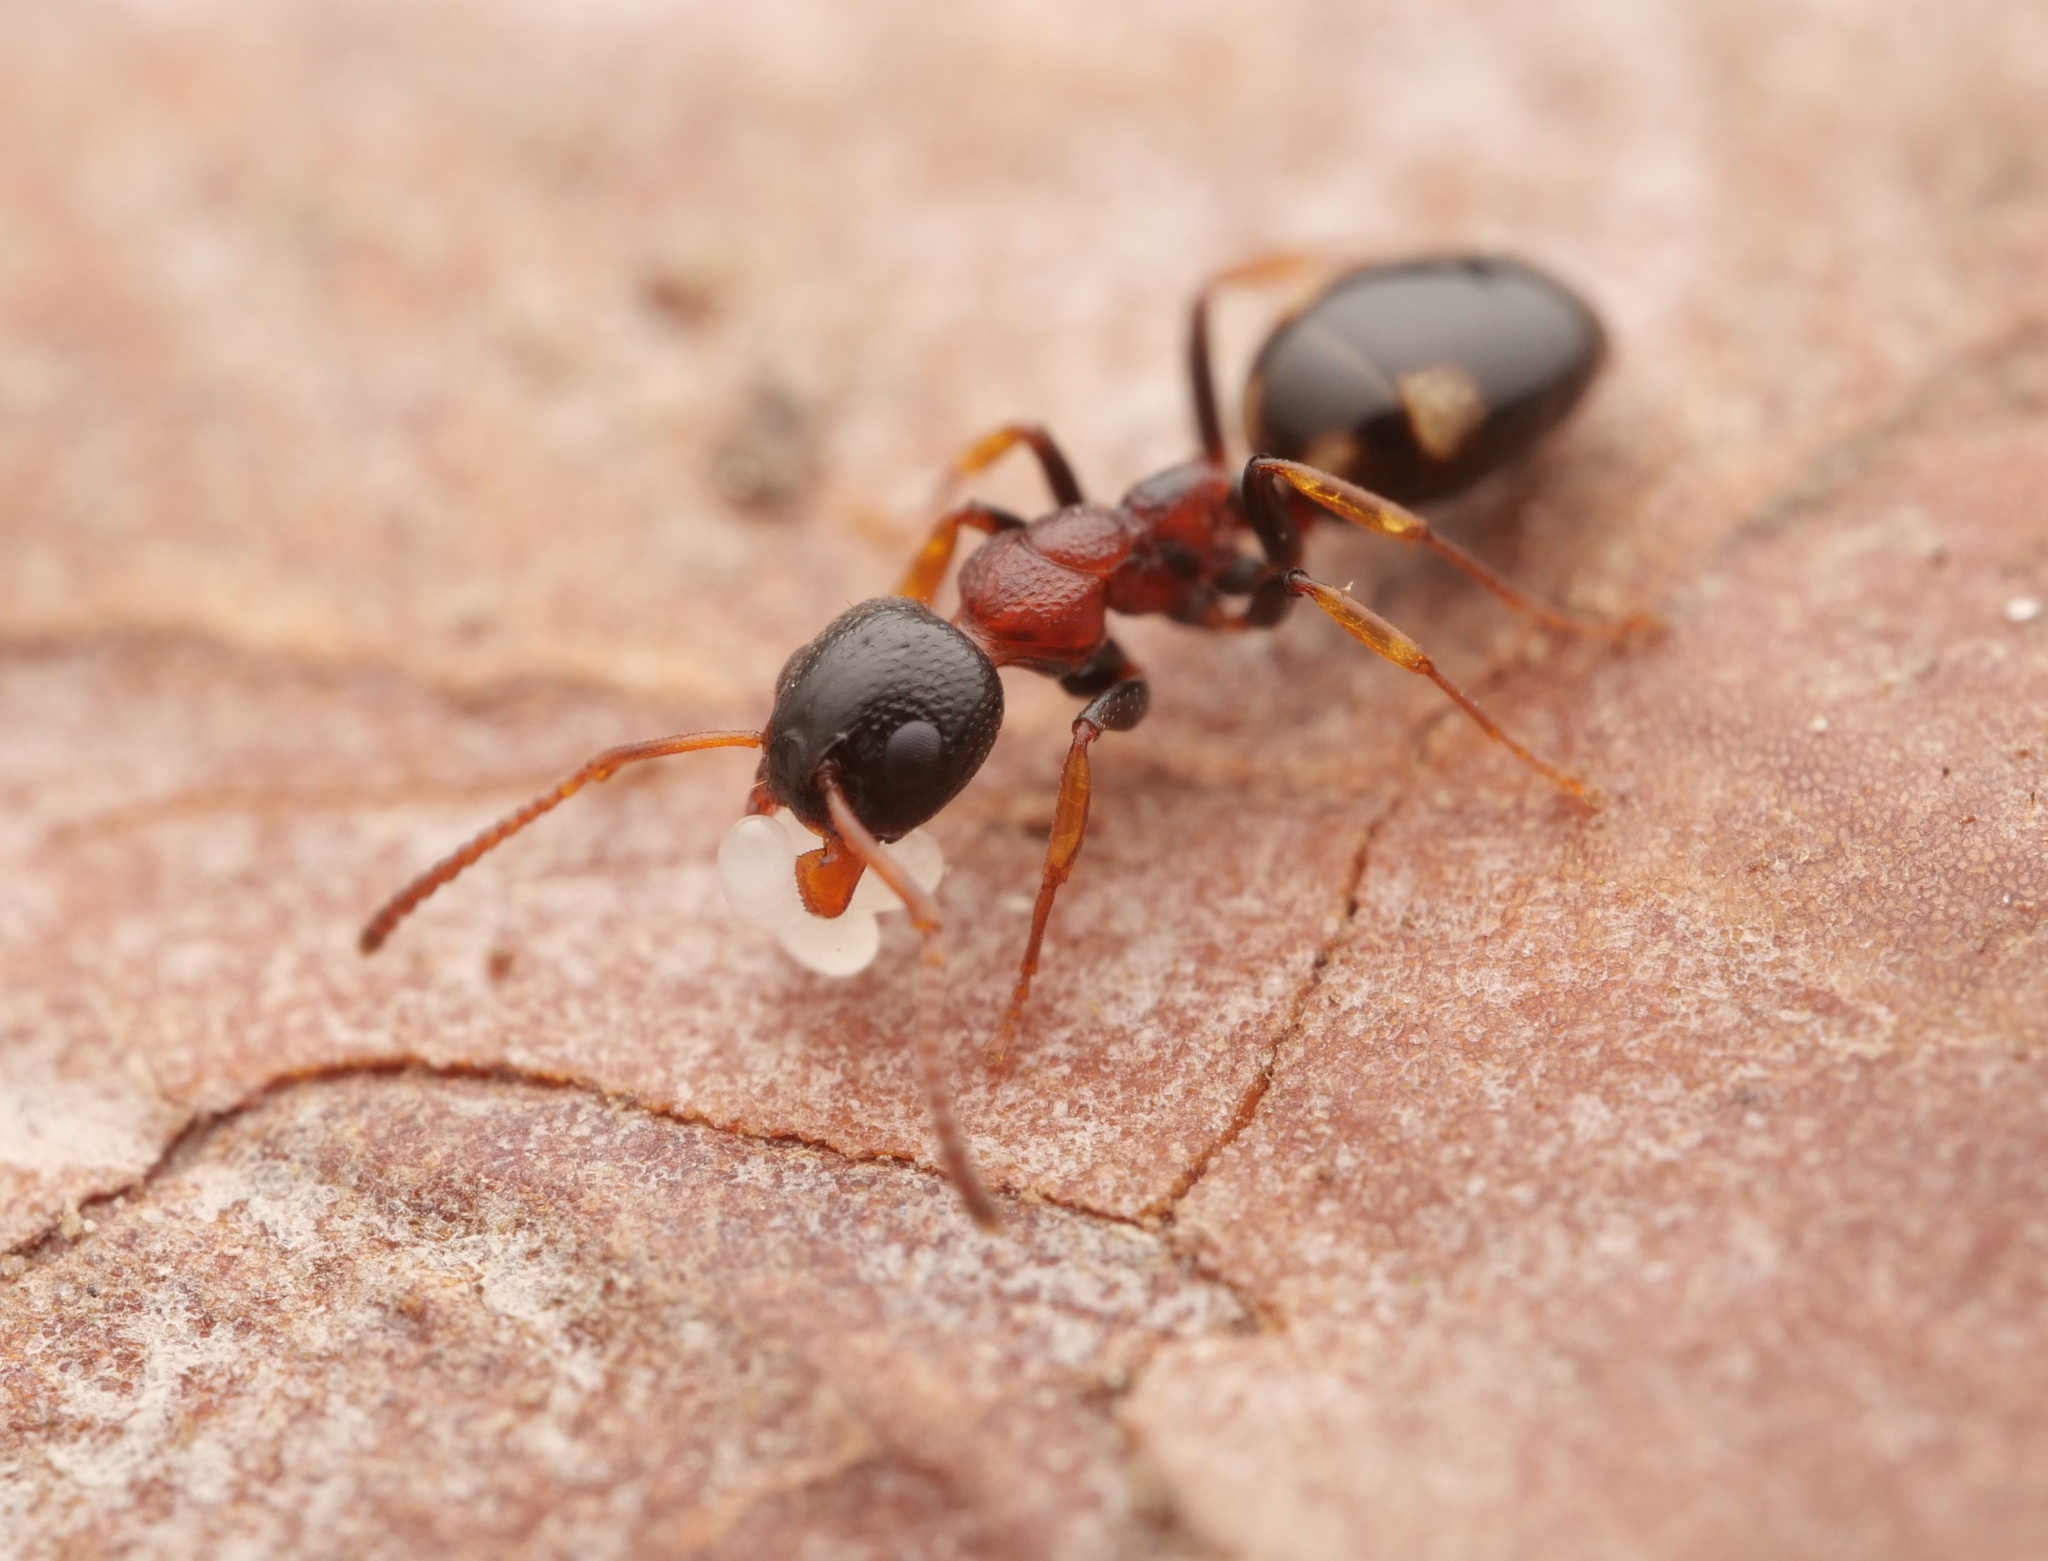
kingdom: Animalia
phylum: Arthropoda
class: Insecta
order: Hymenoptera
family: Formicidae
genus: Dolichoderus
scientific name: Dolichoderus quadripunctatus
